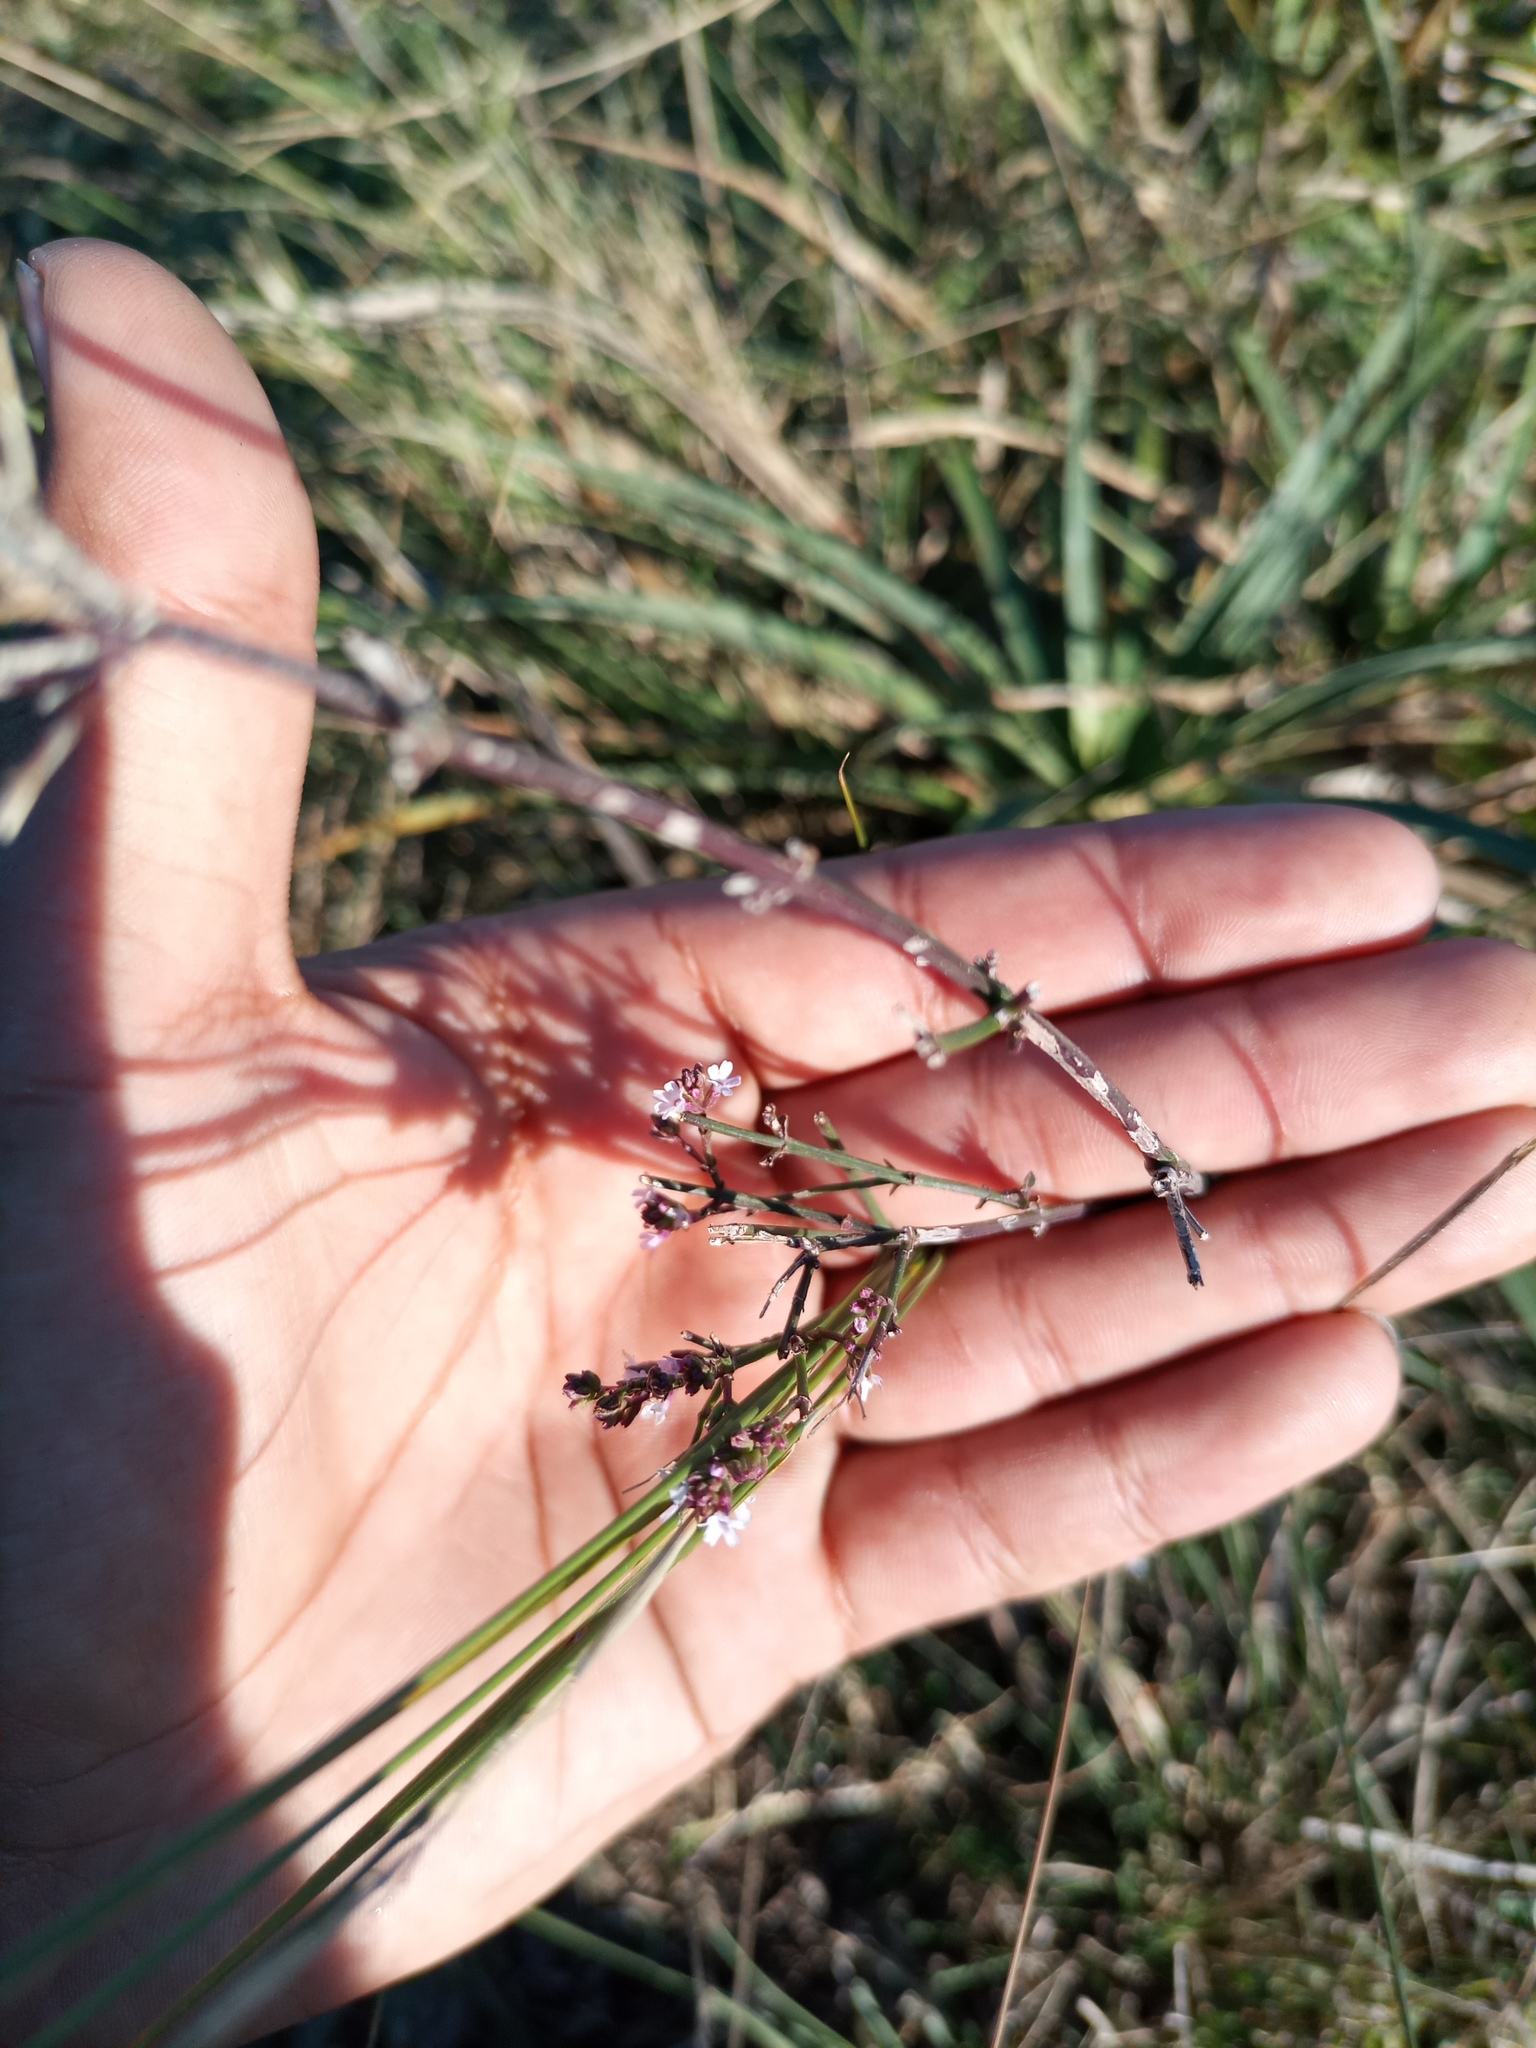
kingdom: Plantae
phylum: Tracheophyta
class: Magnoliopsida
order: Lamiales
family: Verbenaceae
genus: Verbena
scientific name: Verbena litoralis
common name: Seashore vervain
